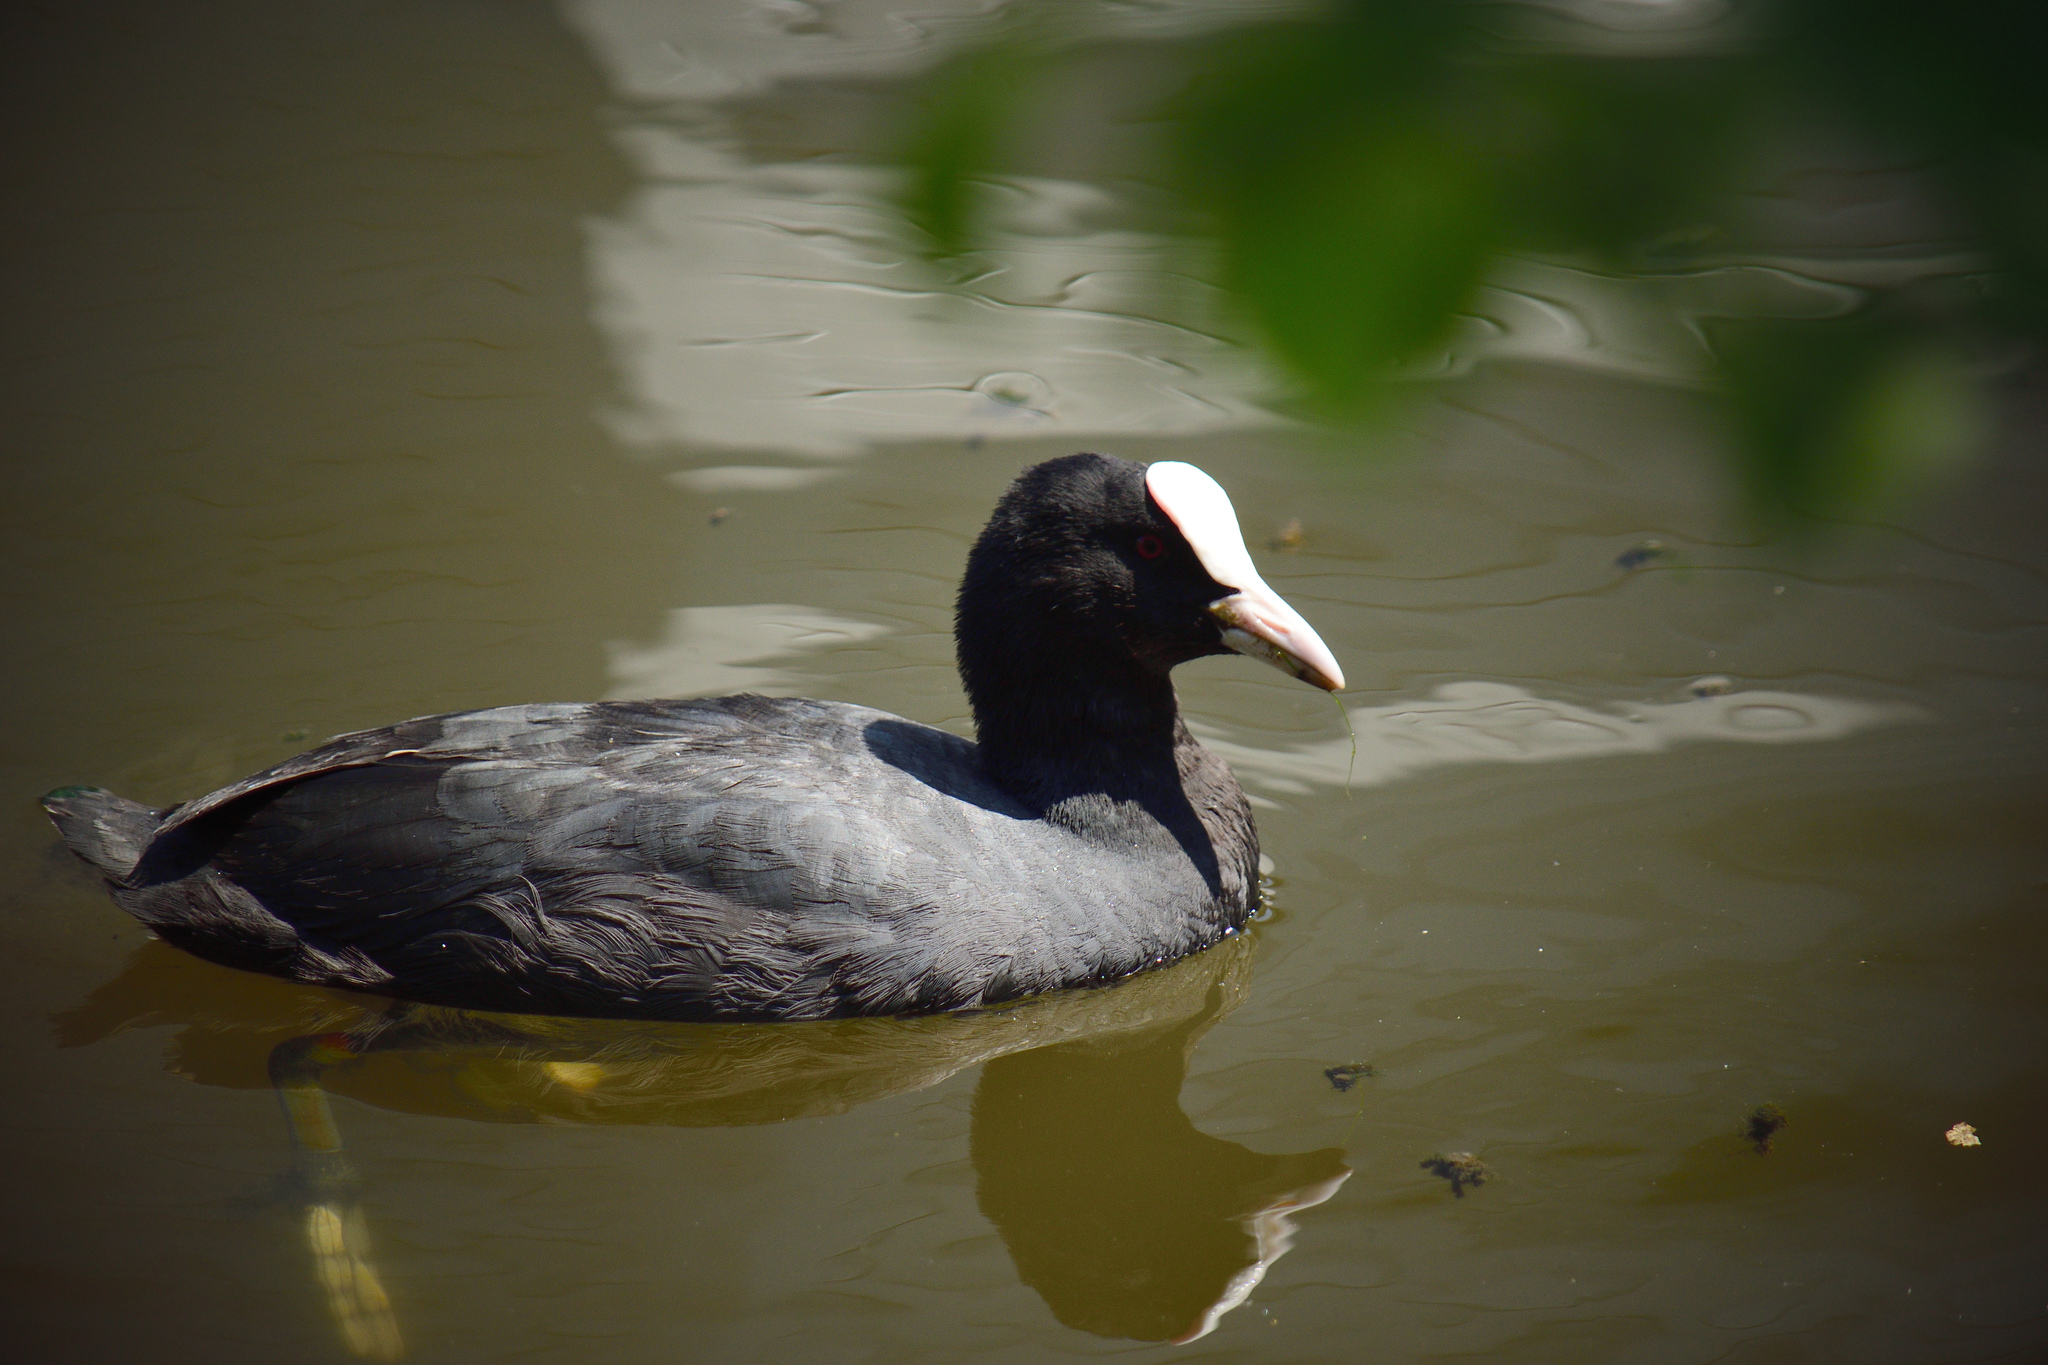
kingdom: Animalia
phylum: Chordata
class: Aves
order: Gruiformes
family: Rallidae
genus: Fulica
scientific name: Fulica atra
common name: Eurasian coot
